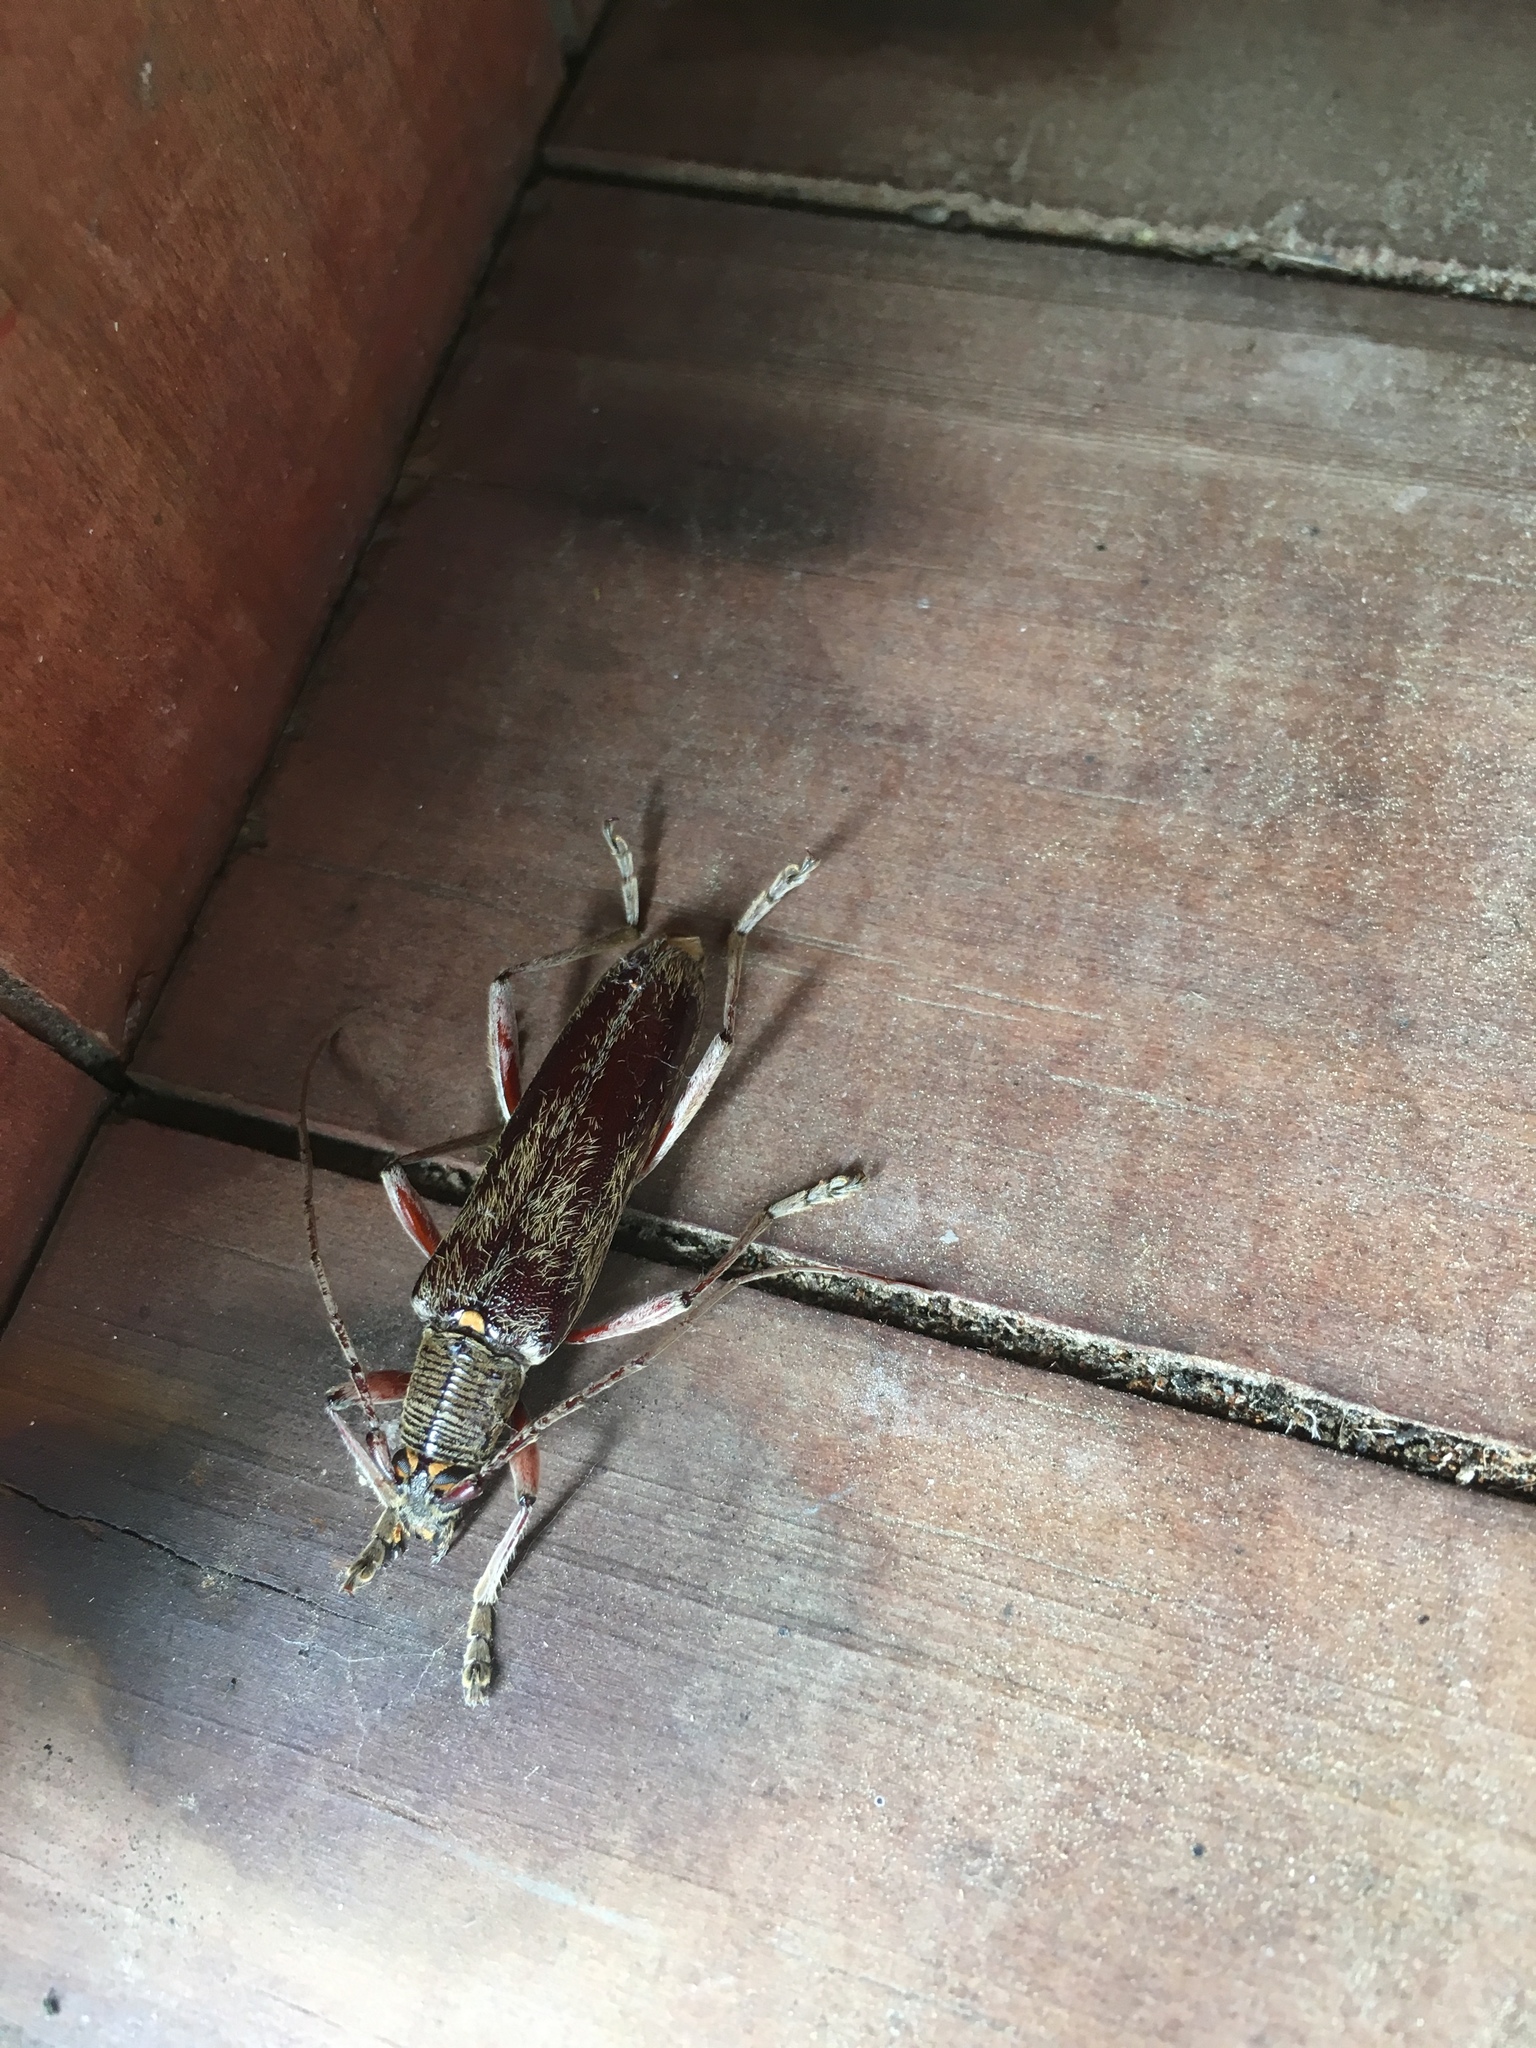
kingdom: Animalia
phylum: Arthropoda
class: Insecta
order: Coleoptera
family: Cerambycidae
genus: Oemona
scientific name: Oemona hirta
